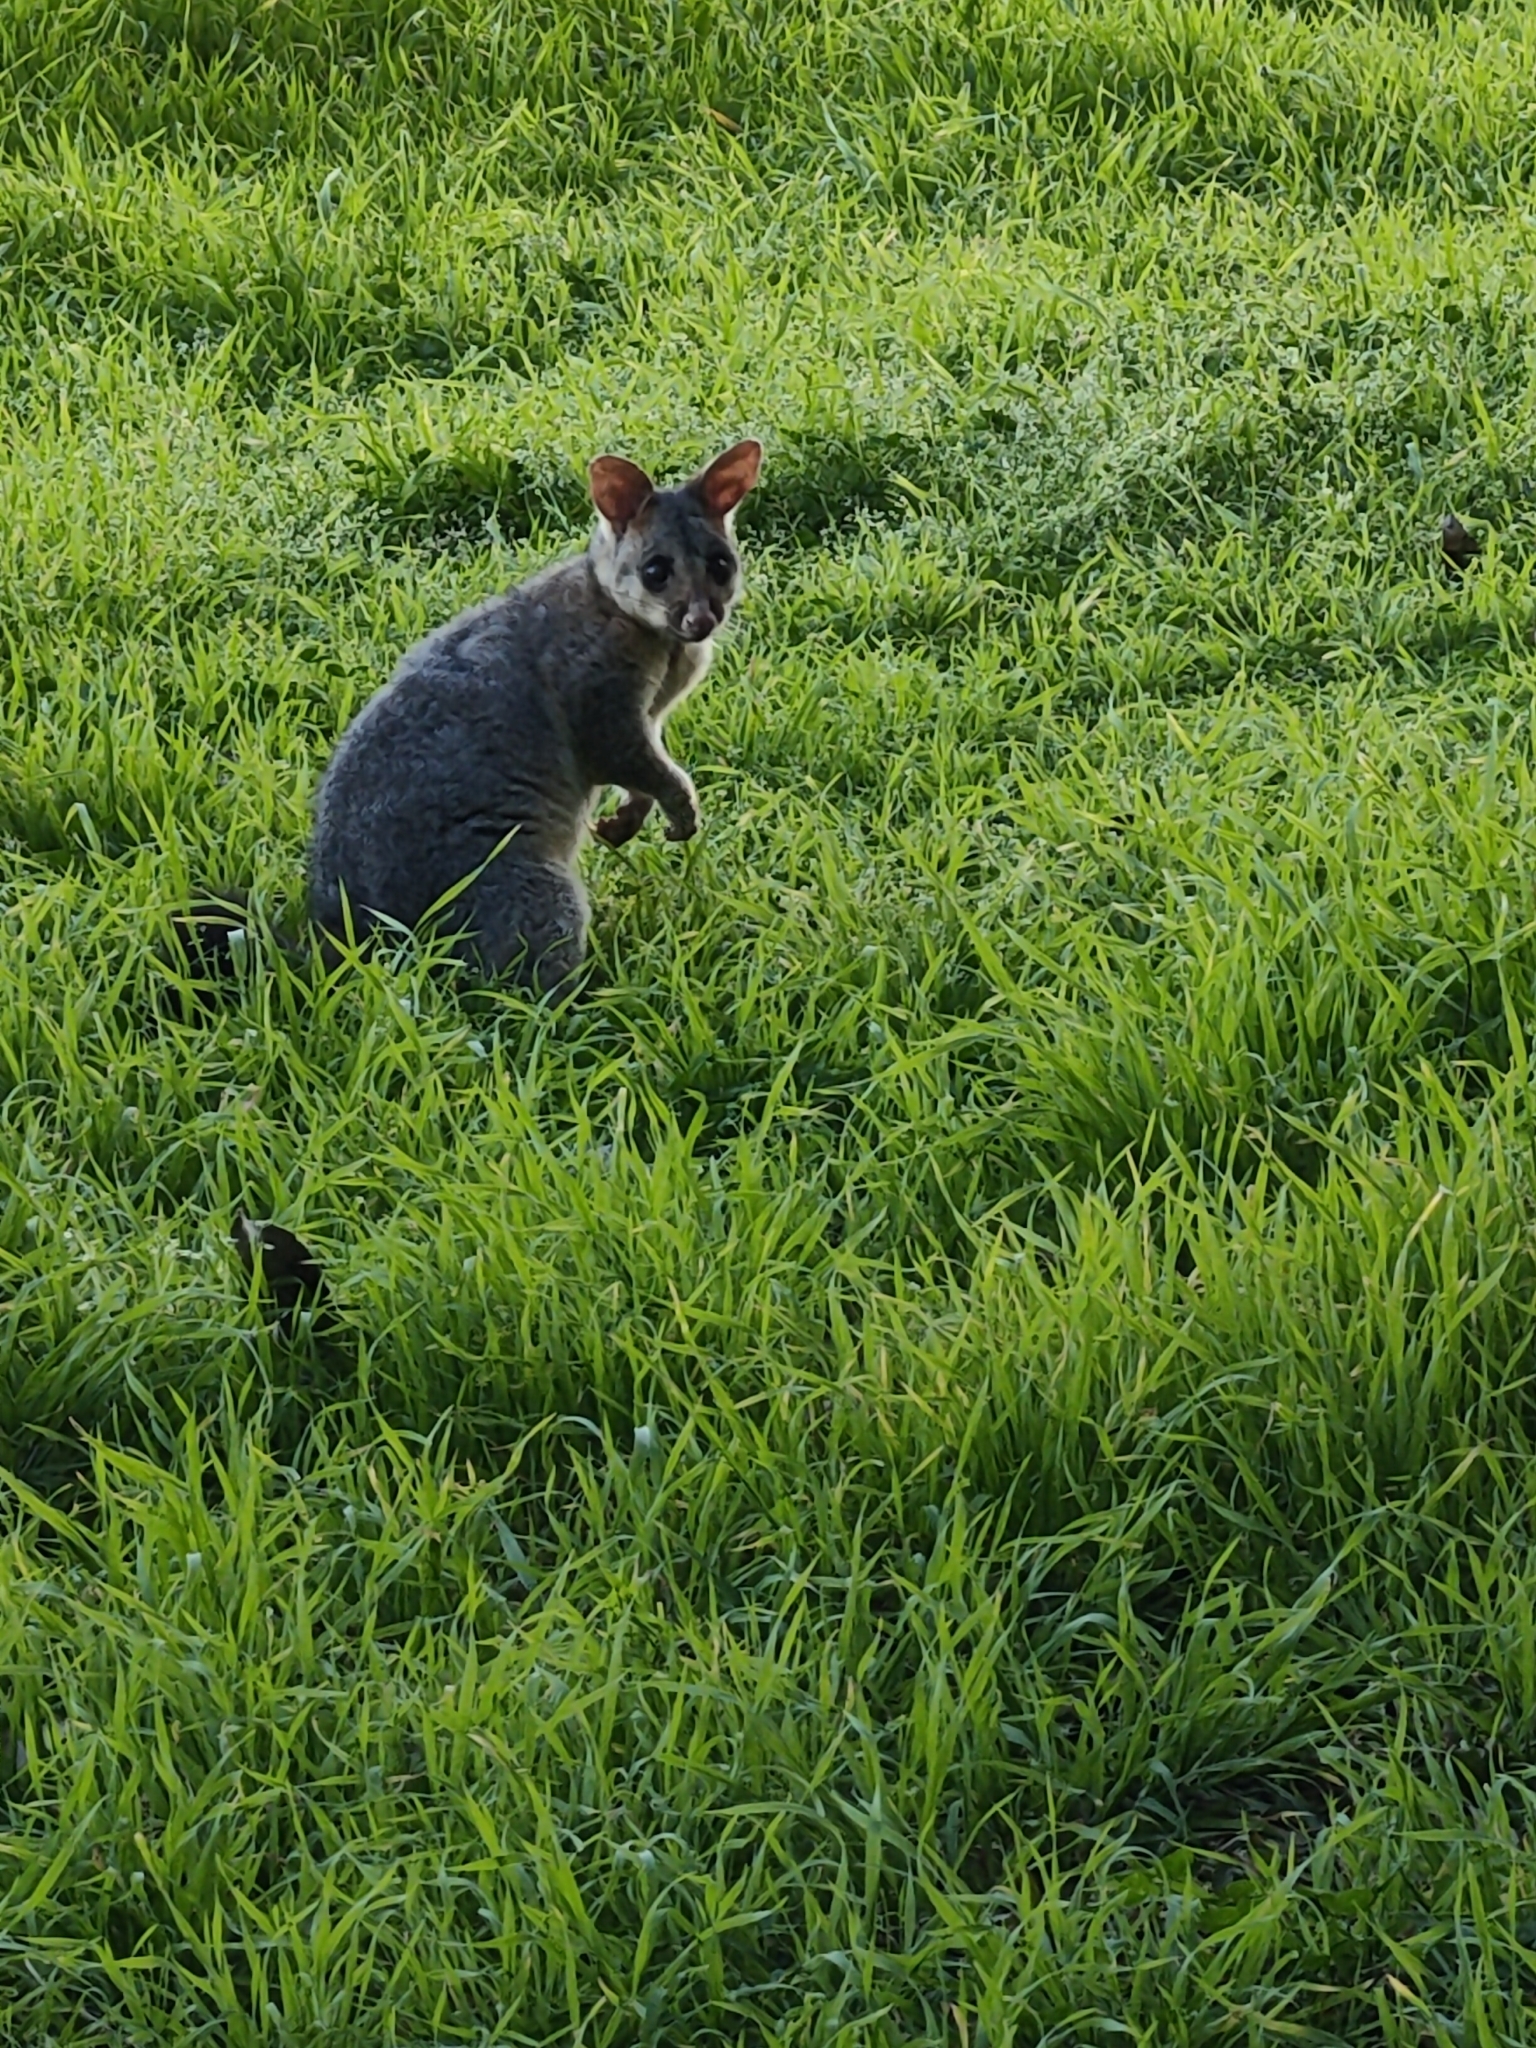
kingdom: Animalia
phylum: Chordata
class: Mammalia
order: Diprotodontia
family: Phalangeridae
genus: Trichosurus
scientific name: Trichosurus vulpecula
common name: Common brushtail
